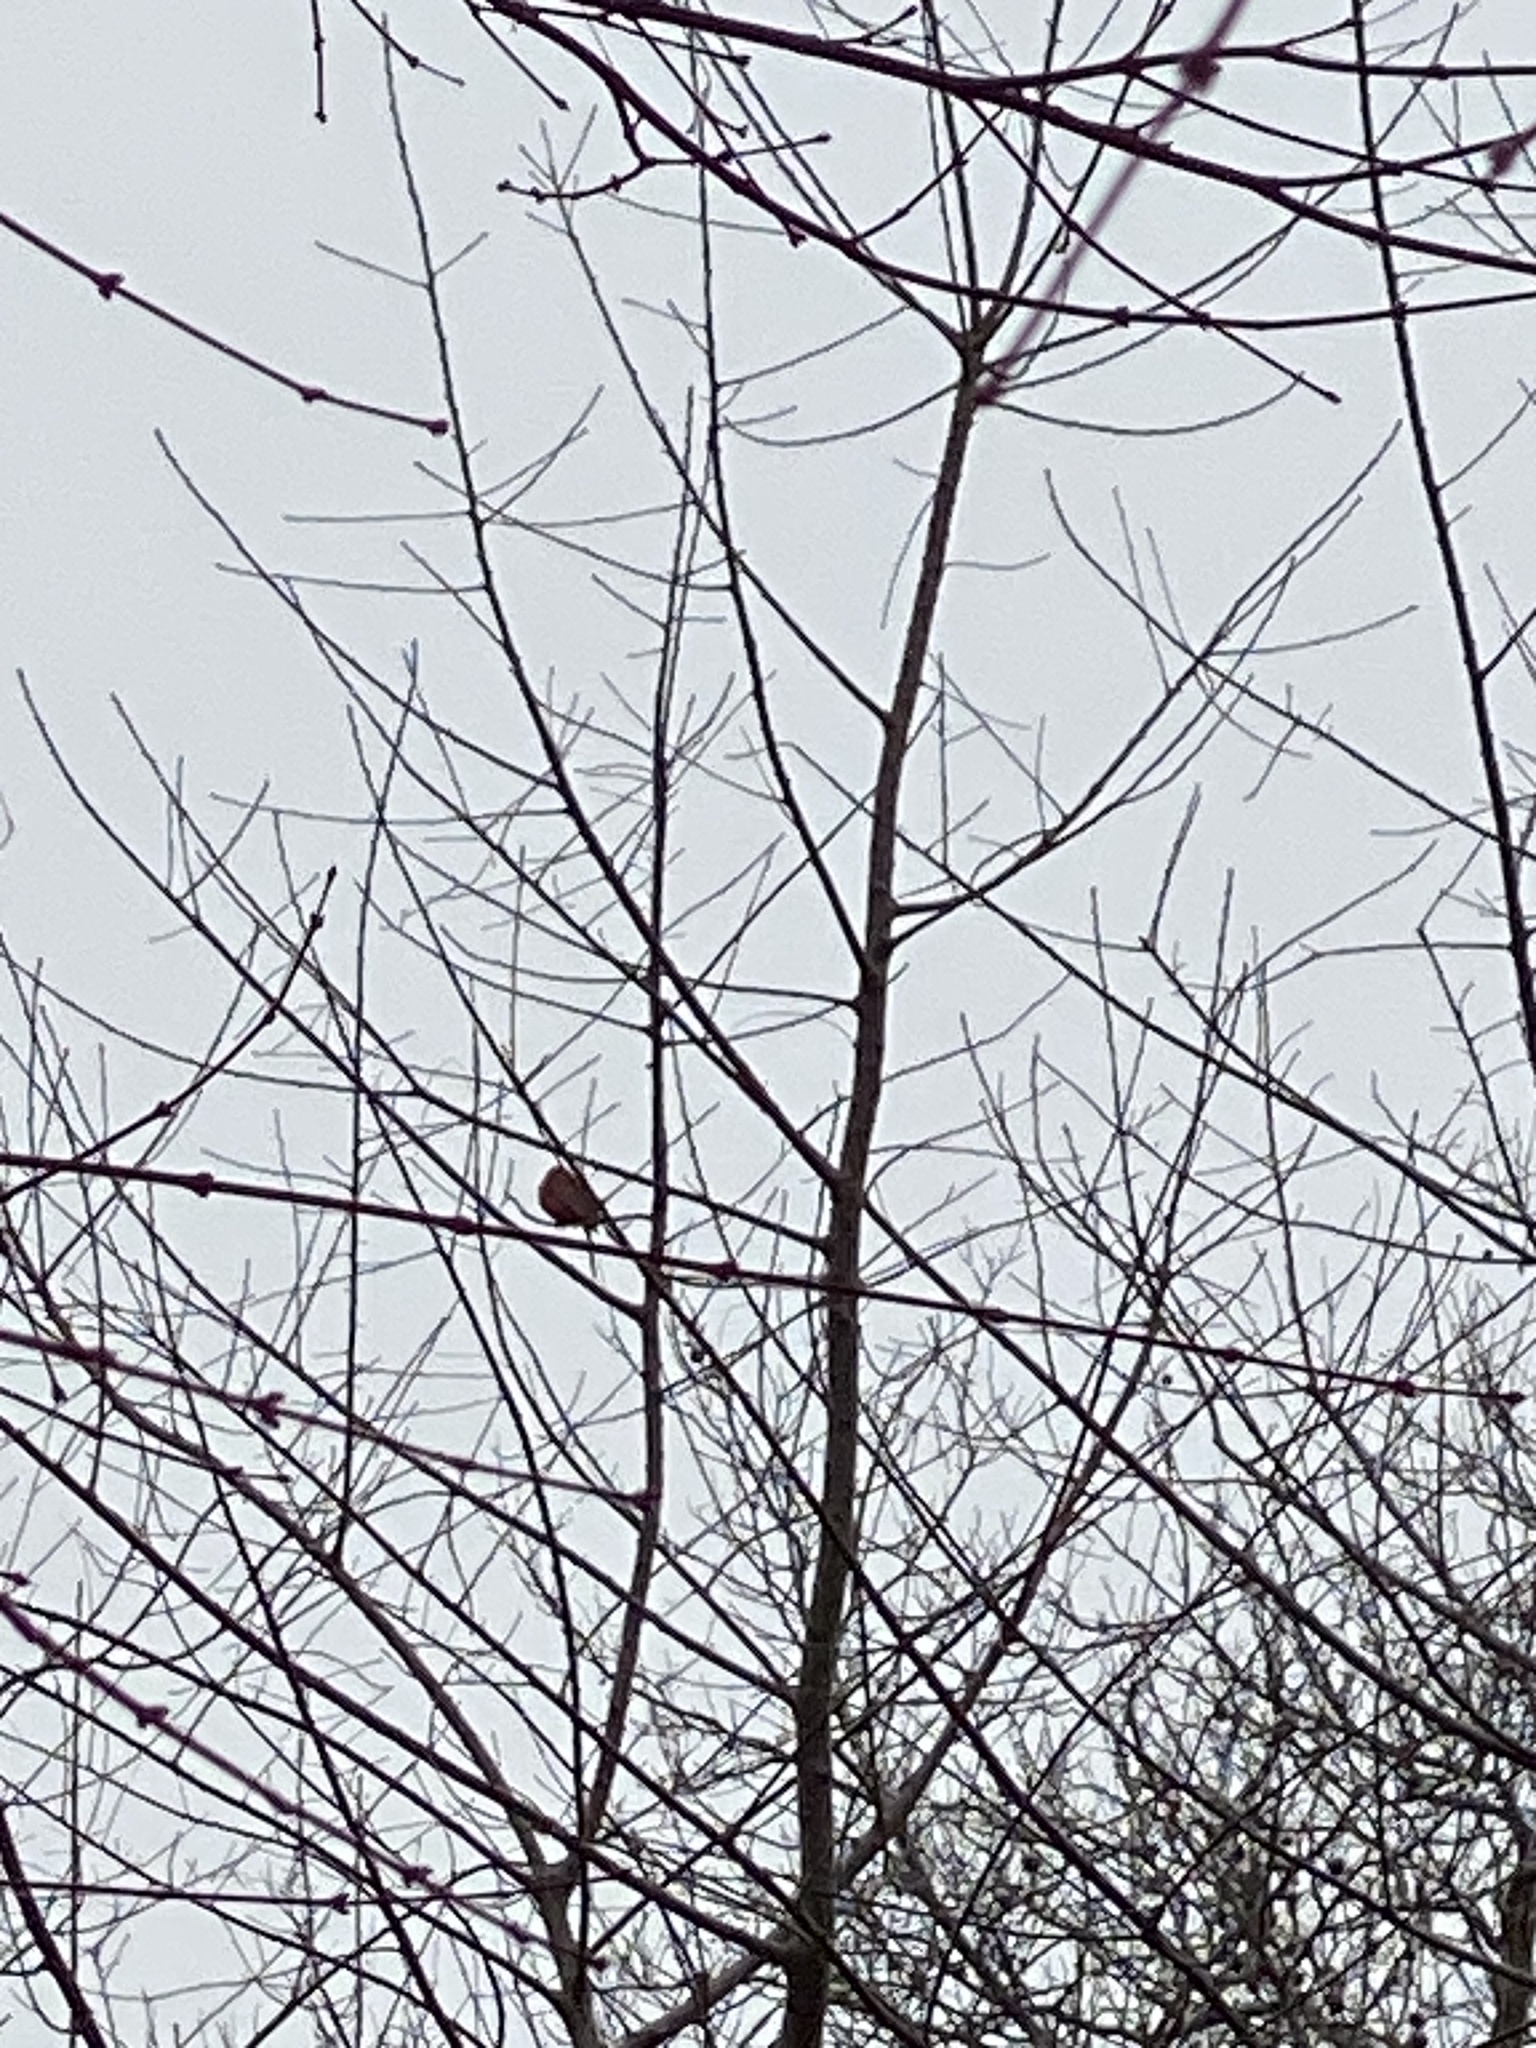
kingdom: Animalia
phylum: Chordata
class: Aves
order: Passeriformes
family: Cardinalidae
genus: Cardinalis
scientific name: Cardinalis cardinalis
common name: Northern cardinal
